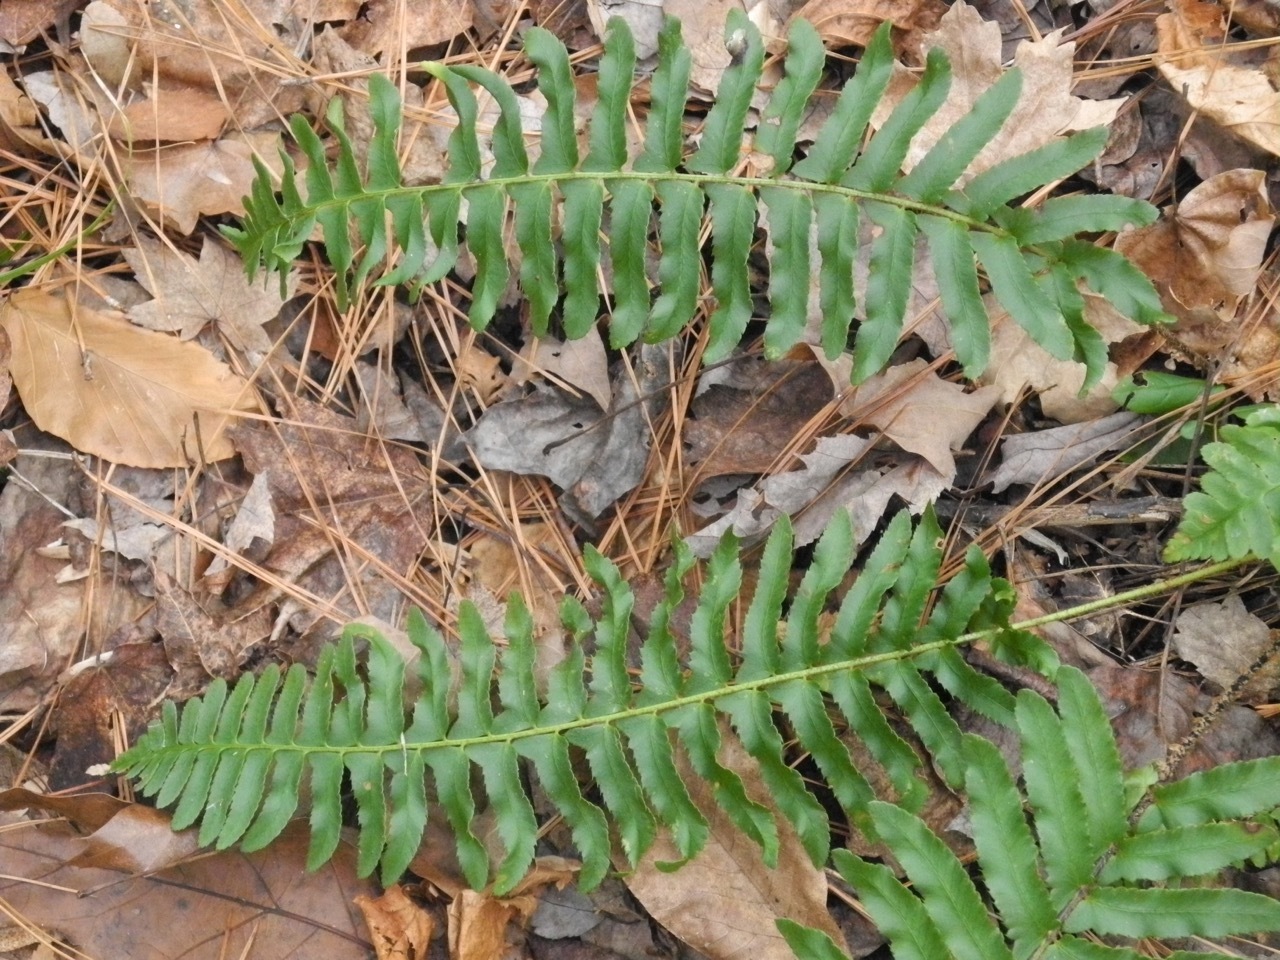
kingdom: Plantae
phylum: Tracheophyta
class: Polypodiopsida
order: Polypodiales
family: Dryopteridaceae
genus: Polystichum
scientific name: Polystichum acrostichoides
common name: Christmas fern
